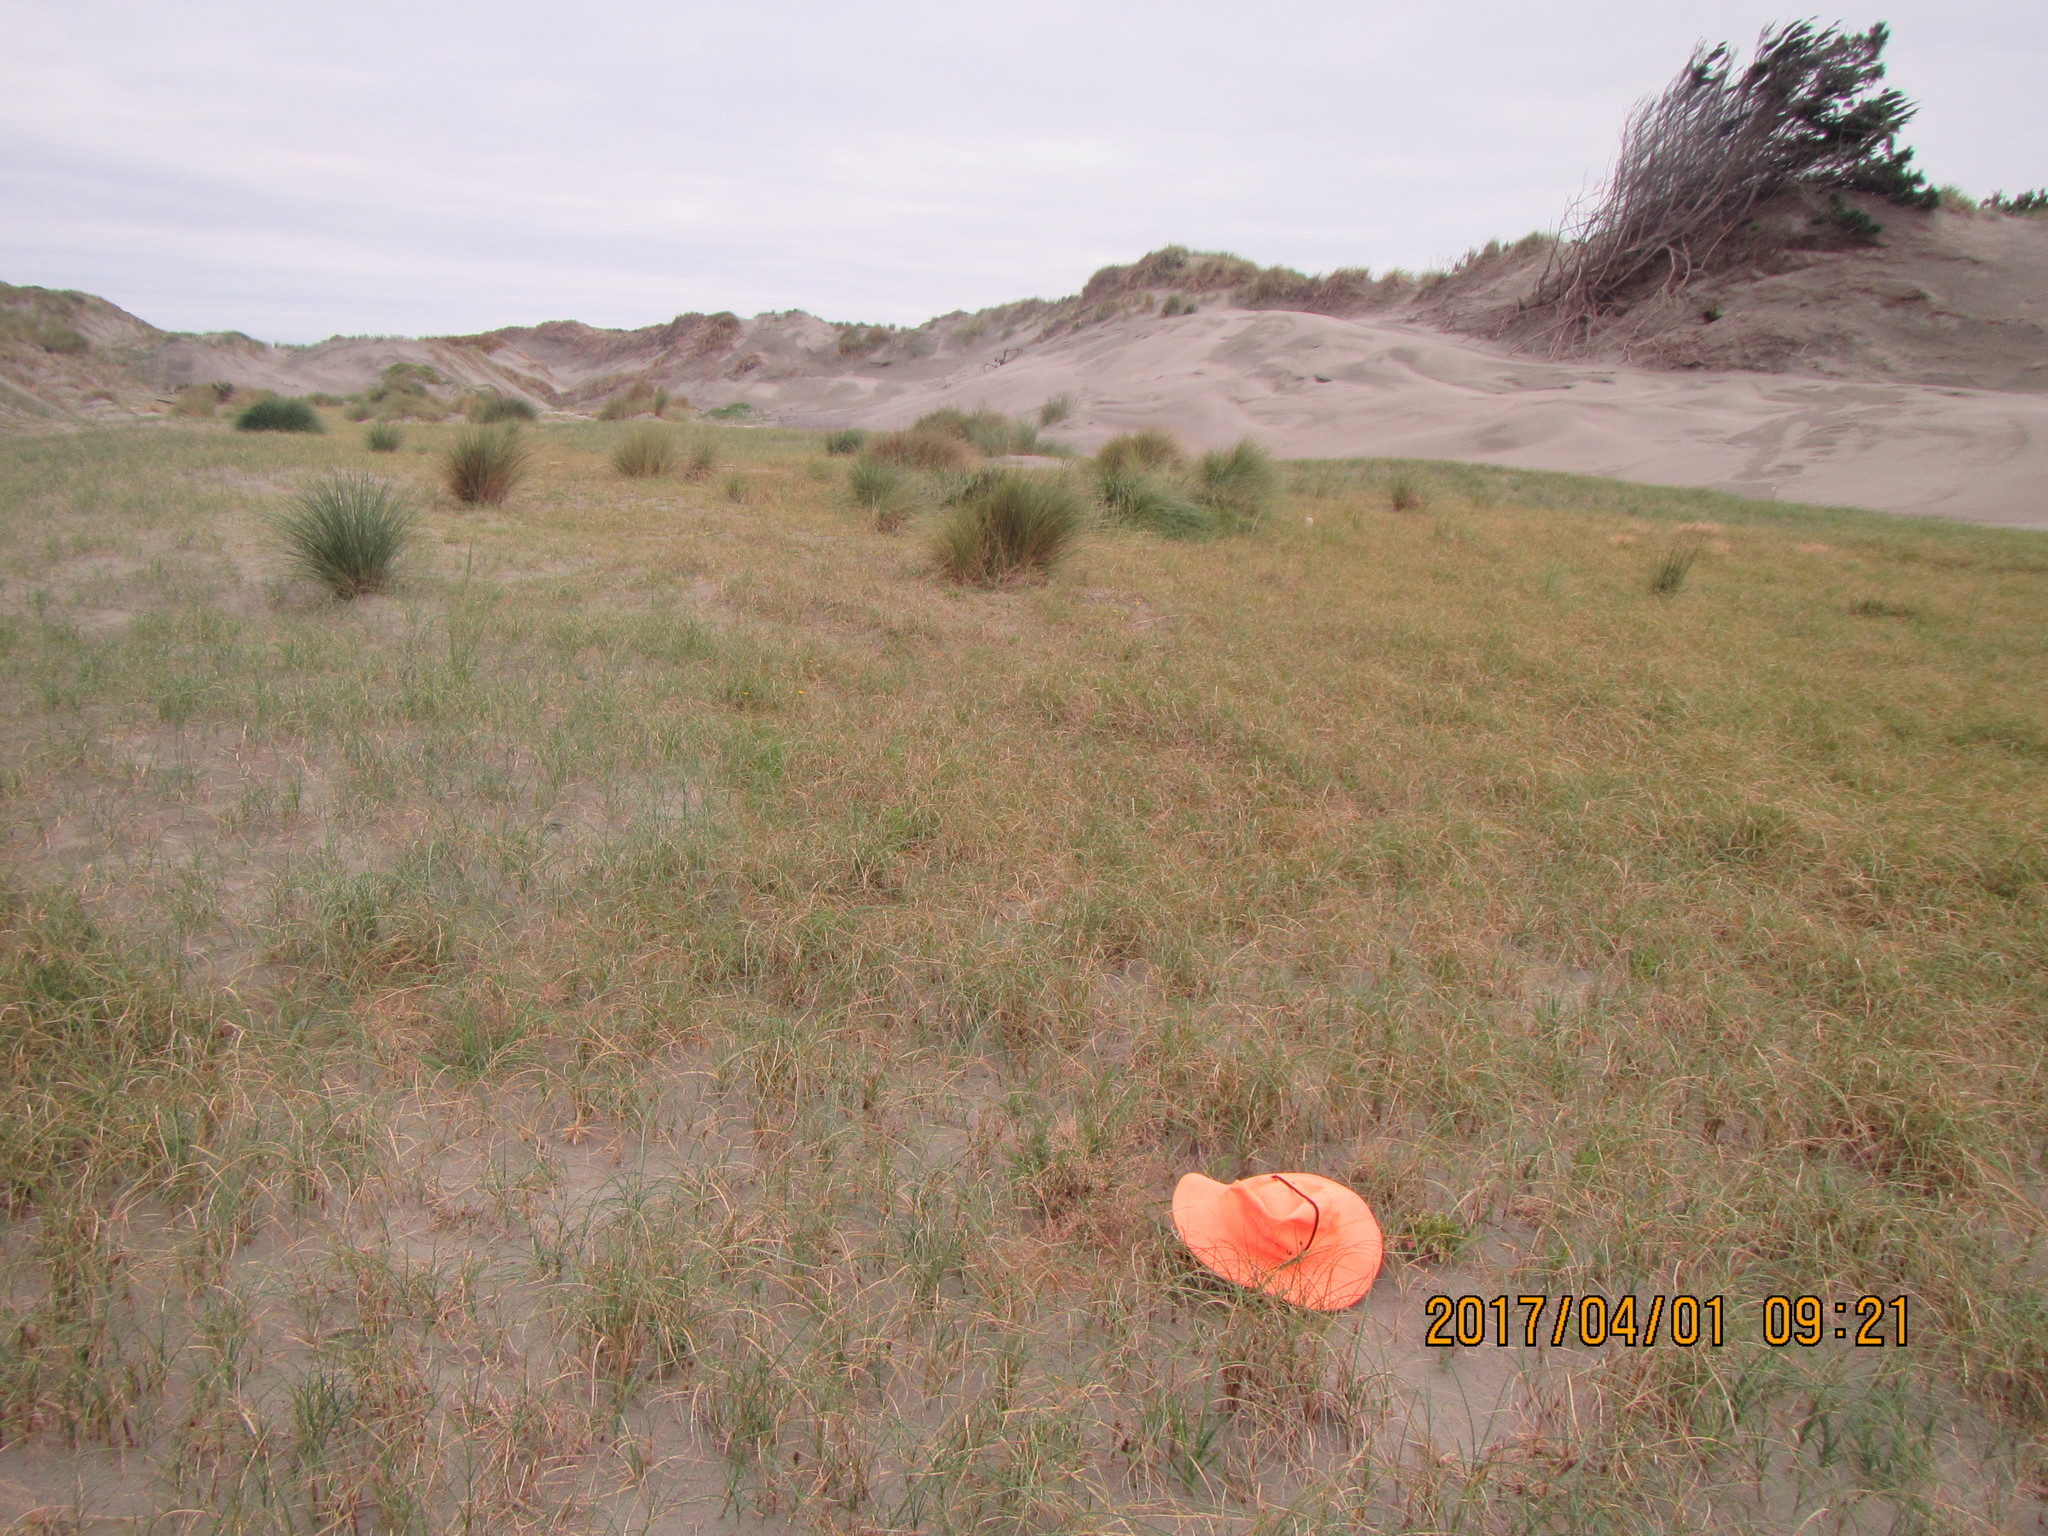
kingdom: Plantae
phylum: Tracheophyta
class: Liliopsida
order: Poales
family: Poaceae
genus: Lachnagrostis
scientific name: Lachnagrostis billardierei
